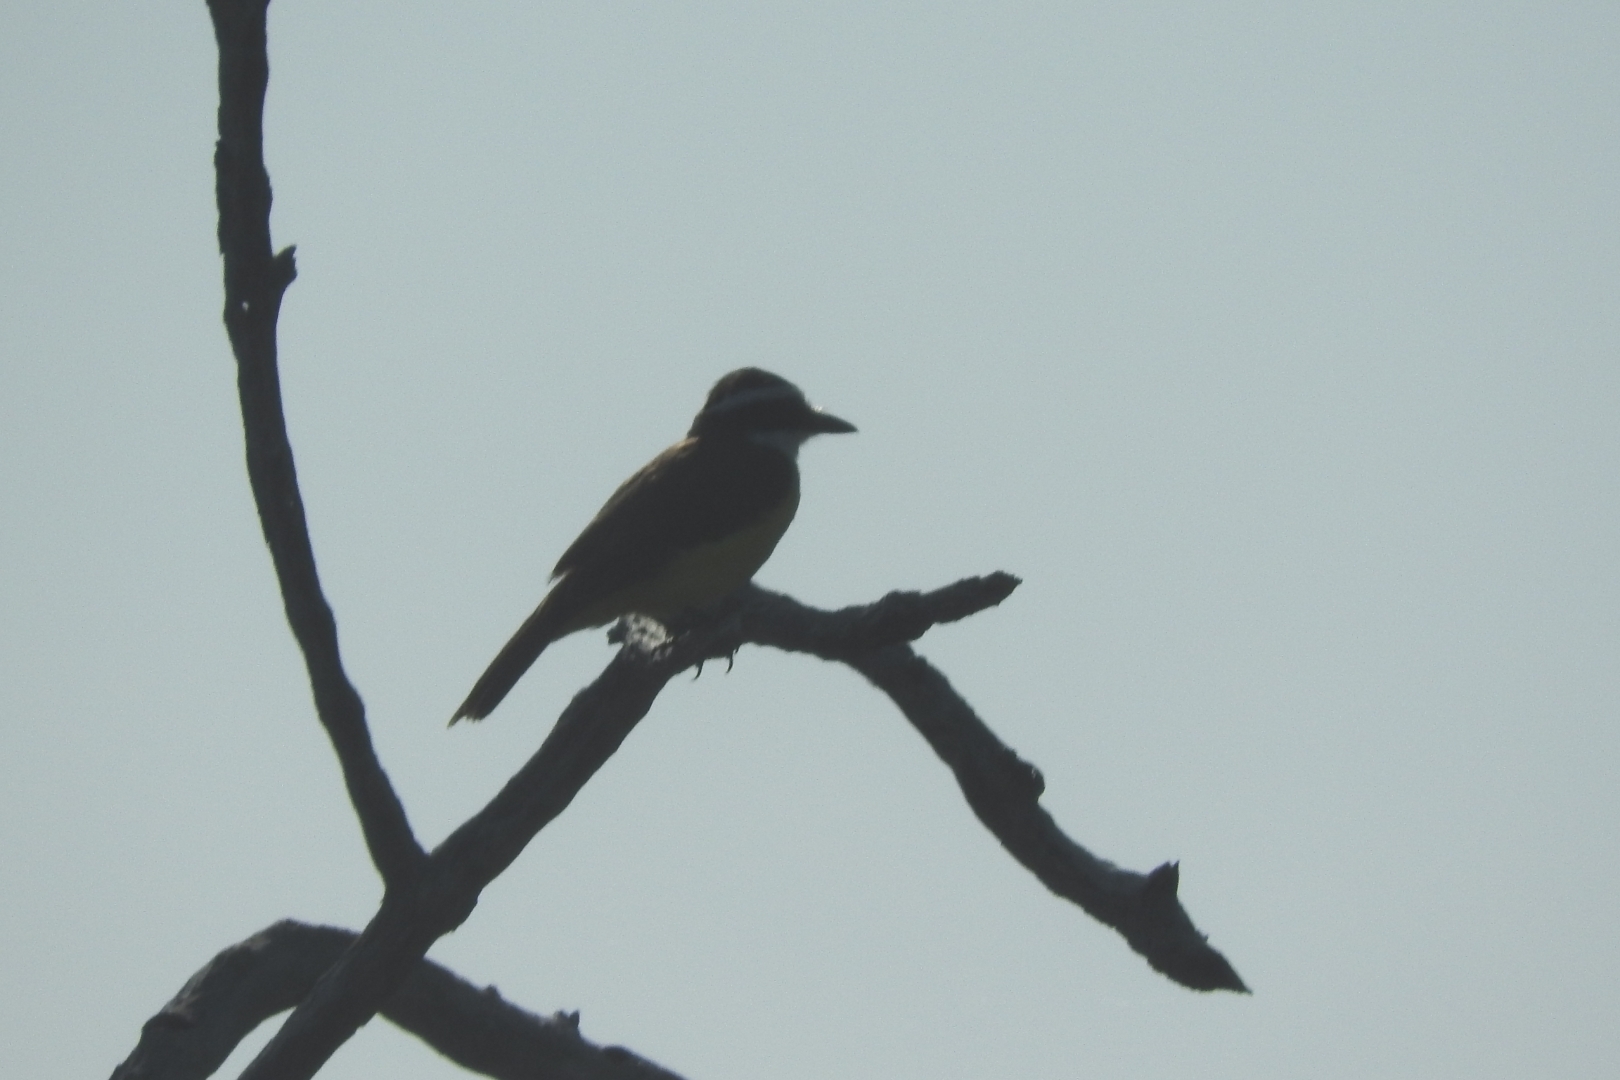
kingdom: Animalia
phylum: Chordata
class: Aves
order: Passeriformes
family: Tyrannidae
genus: Pitangus
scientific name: Pitangus sulphuratus
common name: Great kiskadee
